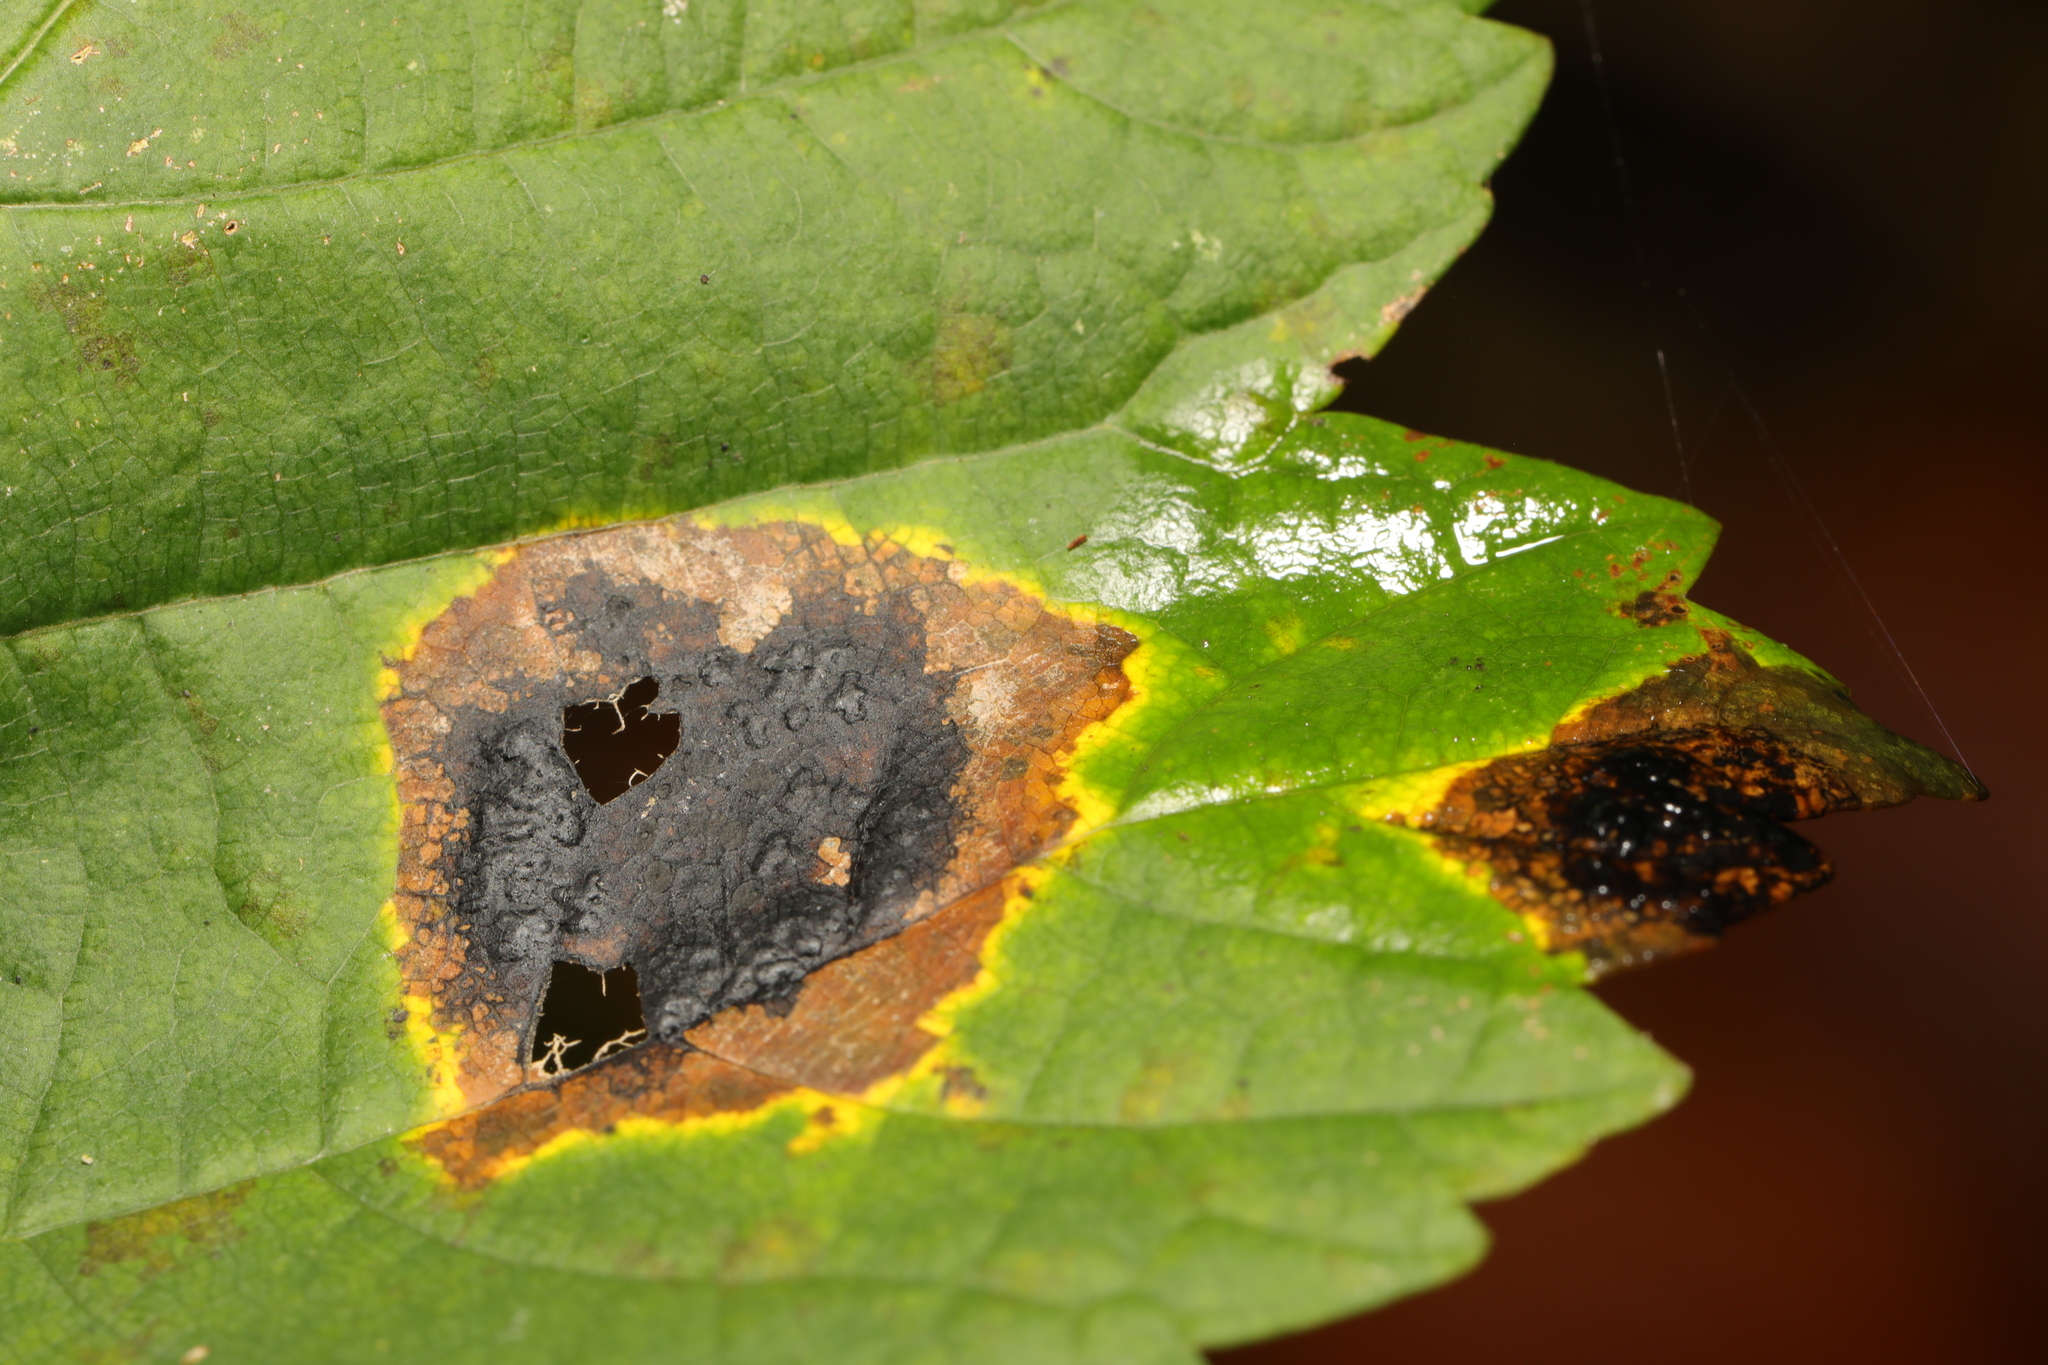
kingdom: Fungi
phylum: Ascomycota
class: Leotiomycetes
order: Rhytismatales
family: Rhytismataceae
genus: Rhytisma
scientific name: Rhytisma acerinum
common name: European tar spot
